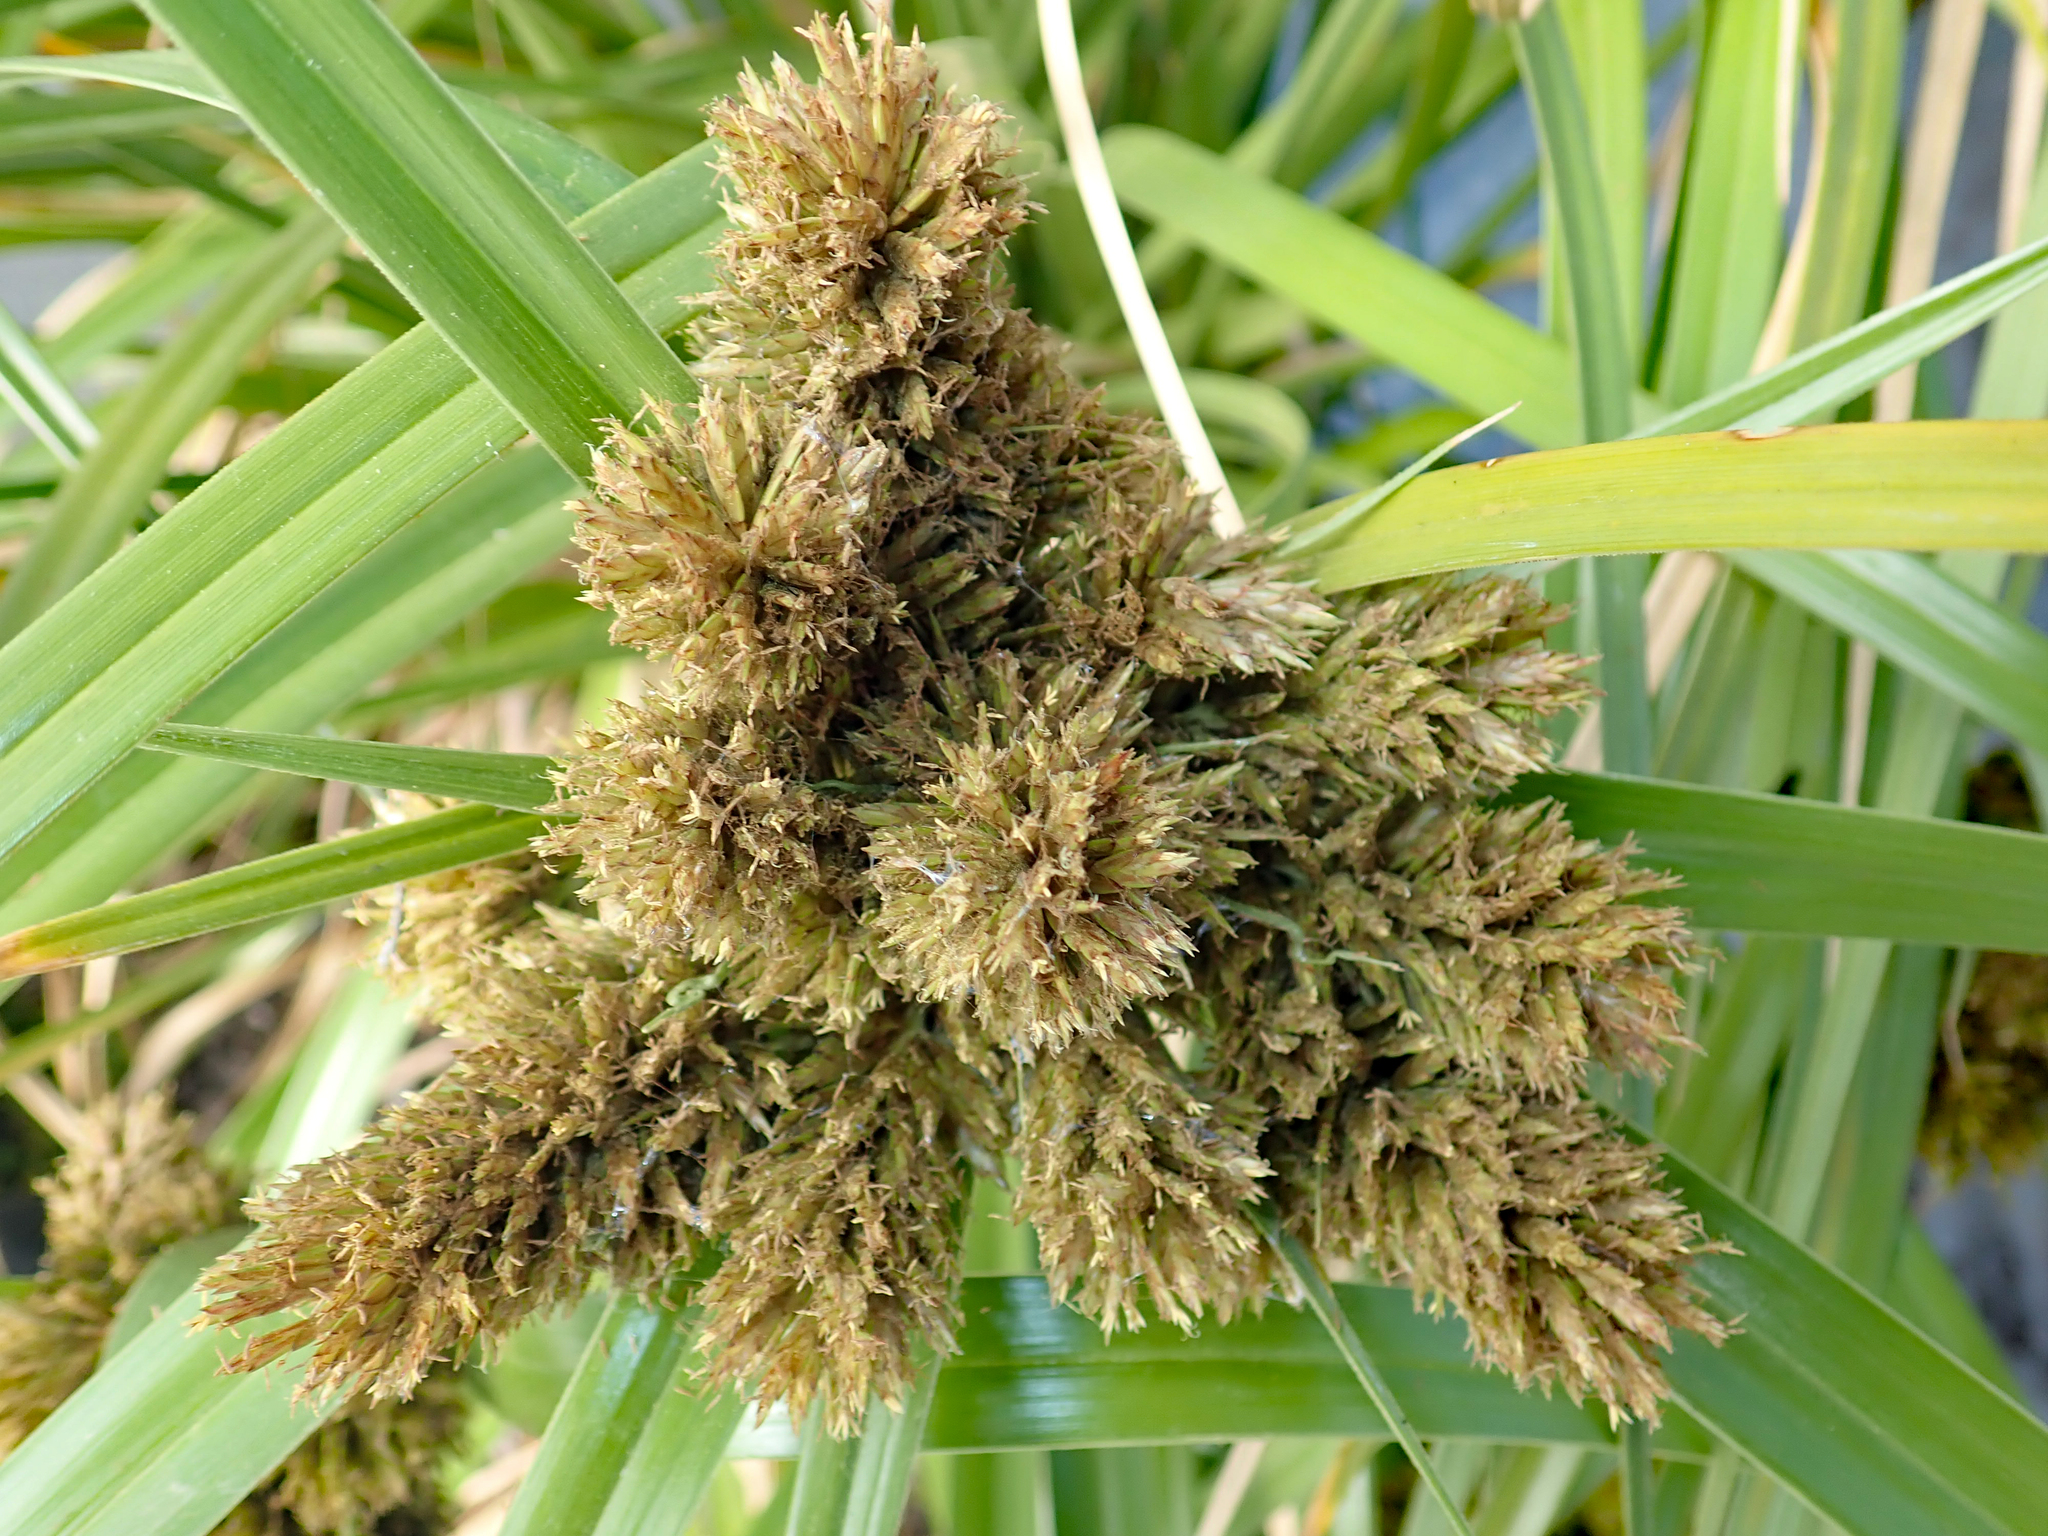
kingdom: Plantae
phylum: Tracheophyta
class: Liliopsida
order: Poales
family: Cyperaceae
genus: Cyperus
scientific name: Cyperus insularis
